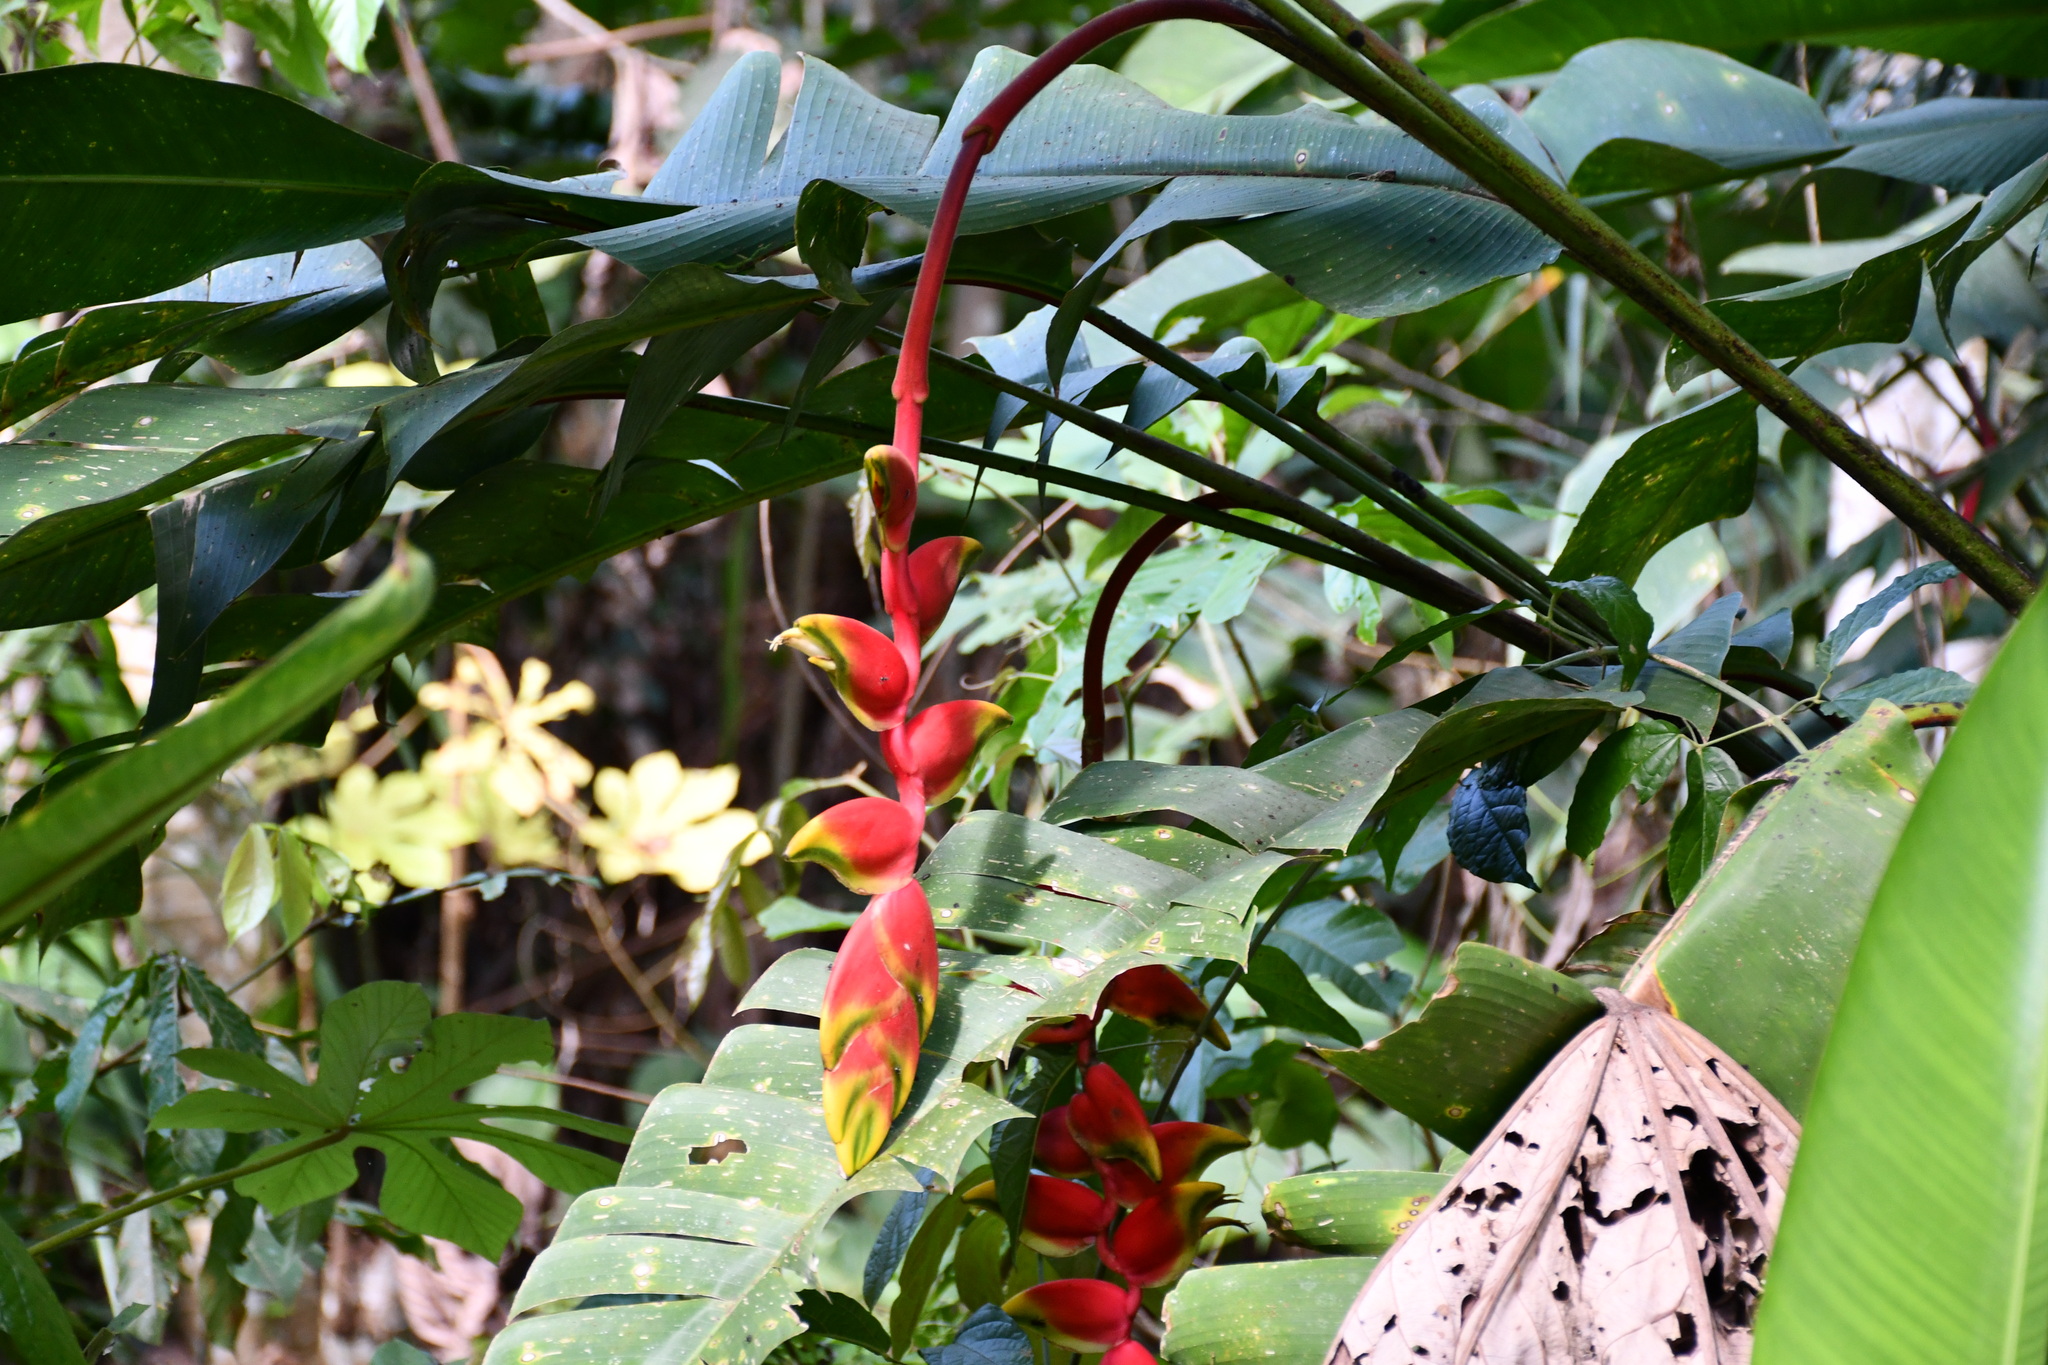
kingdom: Plantae
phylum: Tracheophyta
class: Liliopsida
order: Zingiberales
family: Heliconiaceae
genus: Heliconia
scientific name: Heliconia rostrata
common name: False bird of paradise
